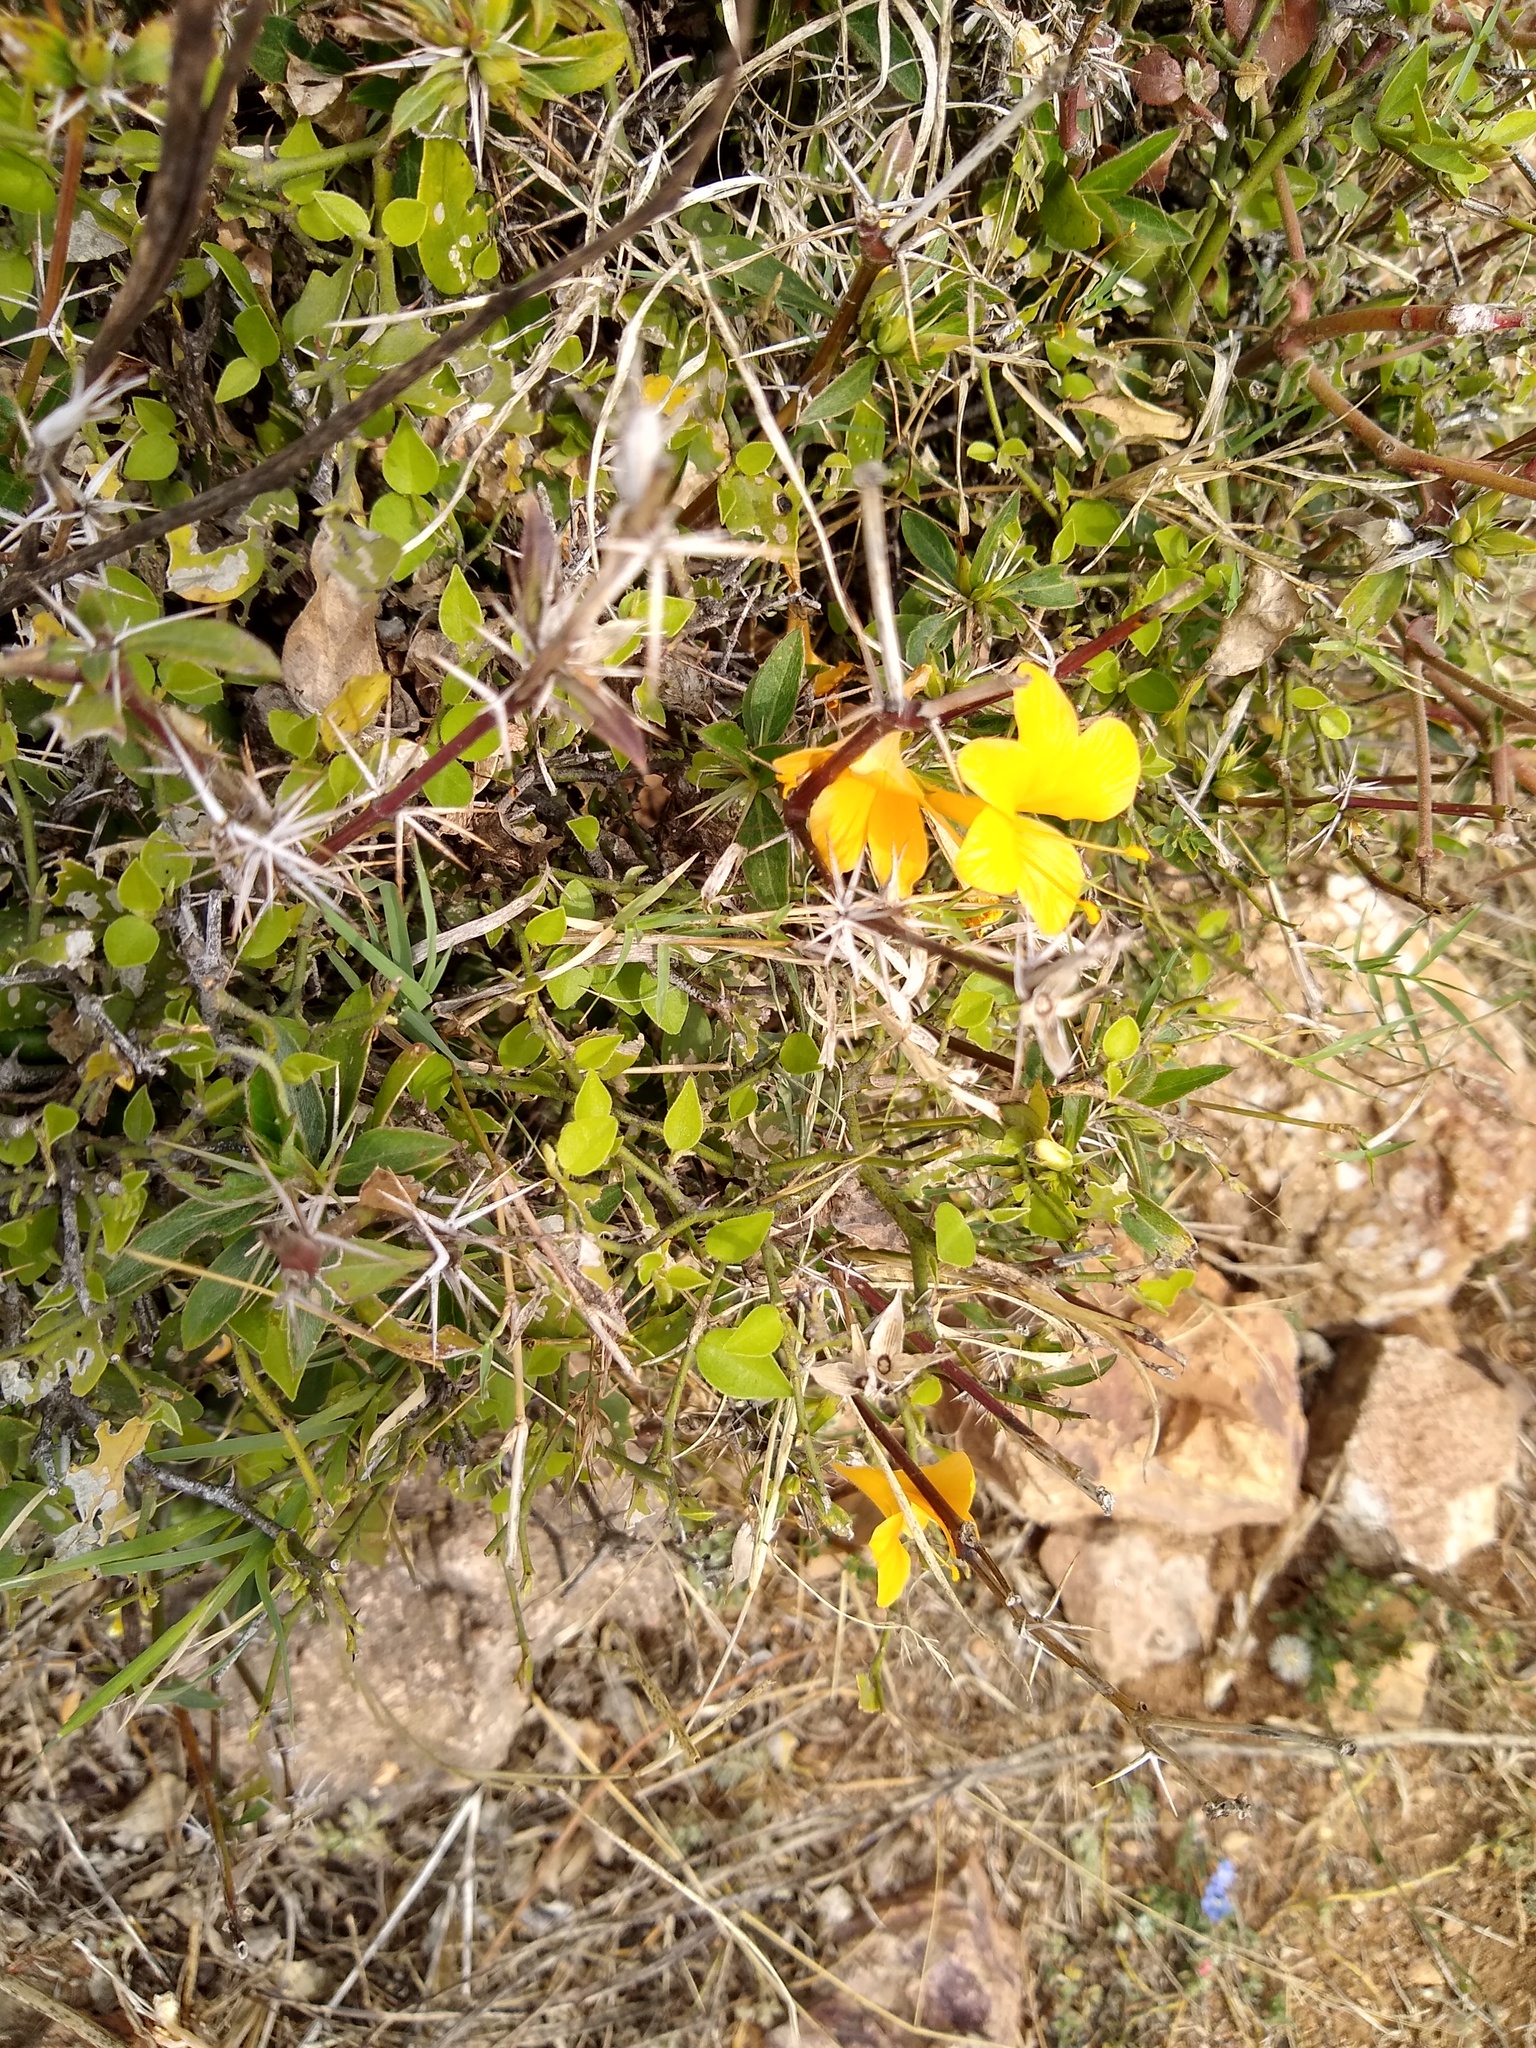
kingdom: Plantae
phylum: Tracheophyta
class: Magnoliopsida
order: Lamiales
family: Acanthaceae
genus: Barleria
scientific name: Barleria prionitis
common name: Barleria
